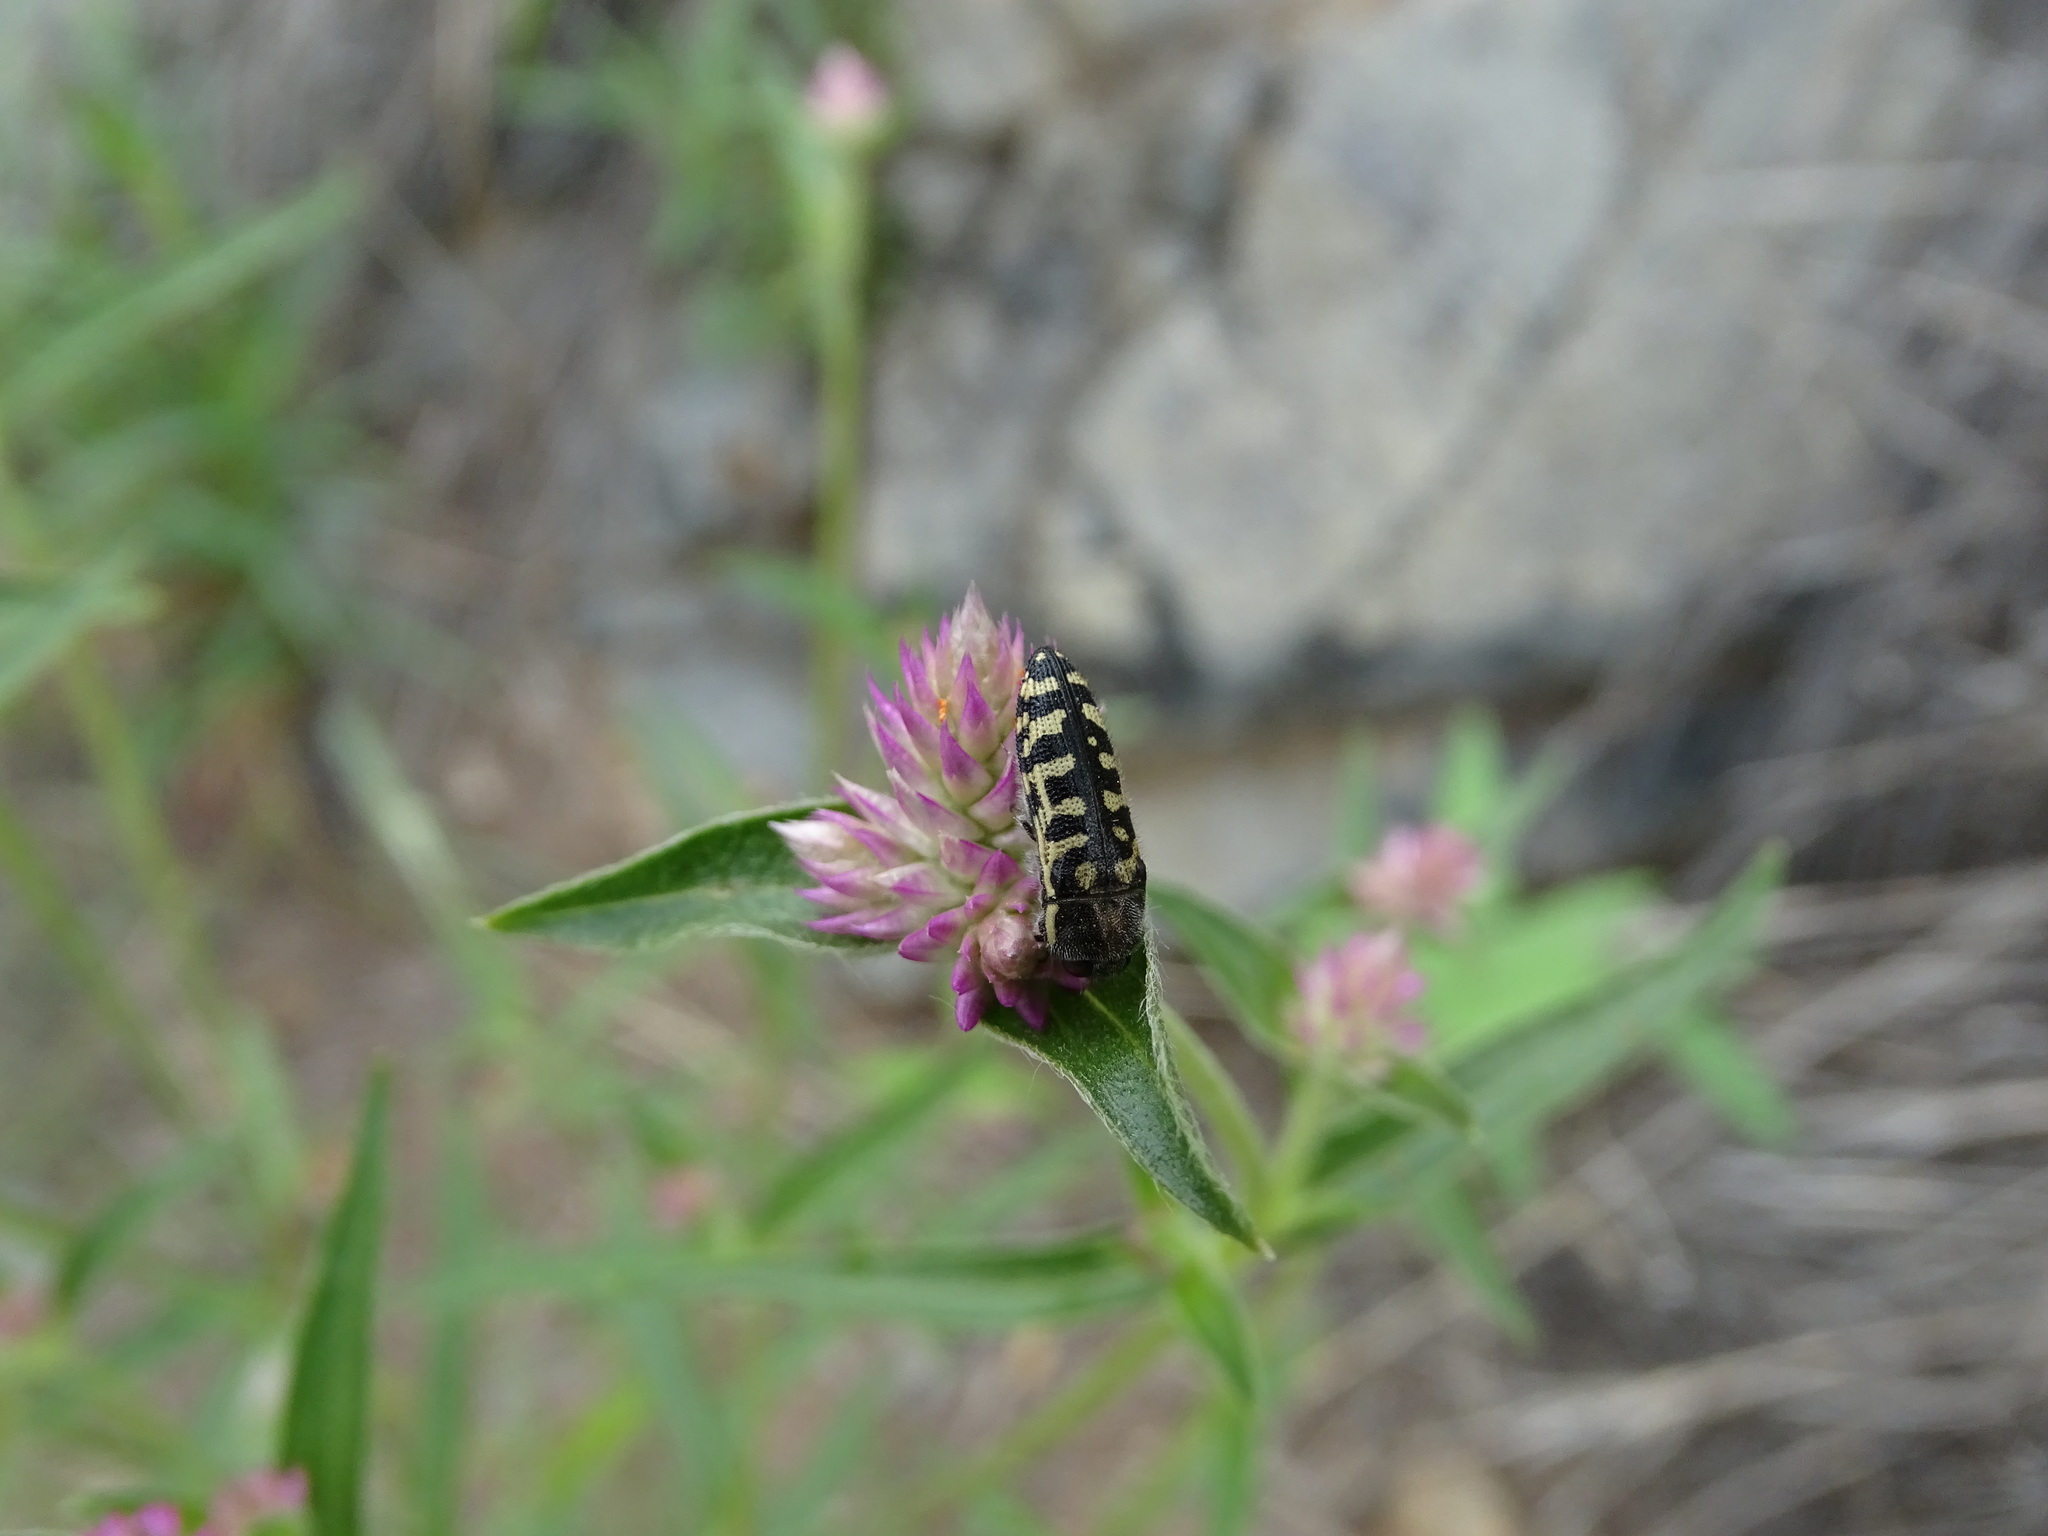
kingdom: Animalia
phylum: Arthropoda
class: Insecta
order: Coleoptera
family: Buprestidae
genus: Acmaeodera
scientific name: Acmaeodera solitaria
